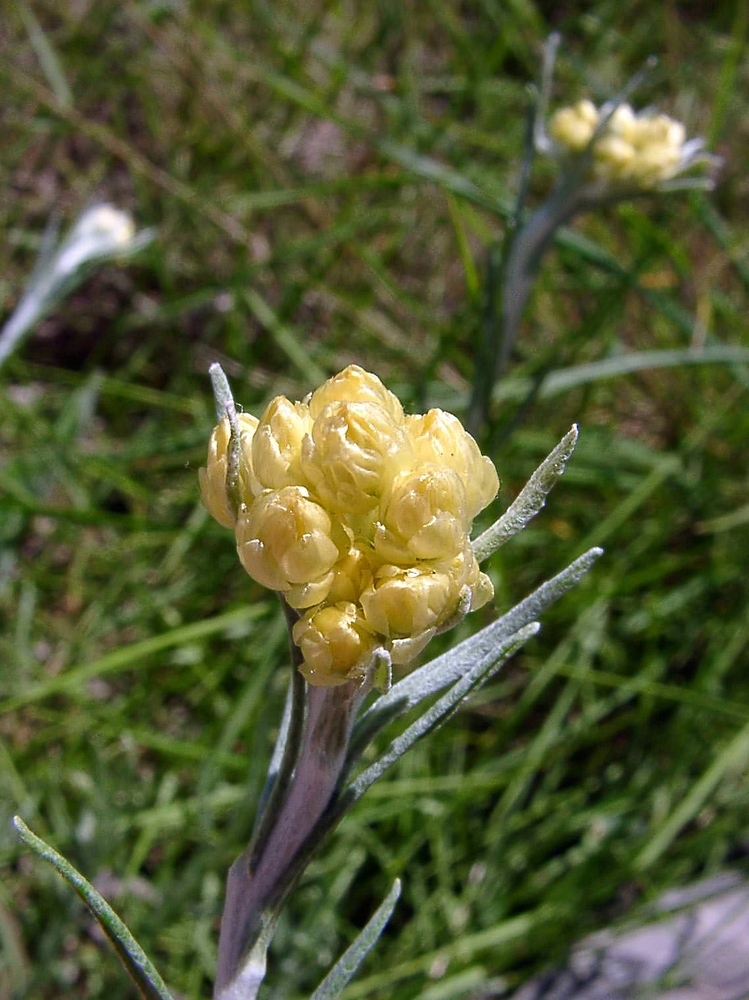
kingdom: Plantae
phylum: Tracheophyta
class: Magnoliopsida
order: Asterales
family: Asteraceae
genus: Helichrysum
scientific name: Helichrysum stoechas
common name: Goldilocks
